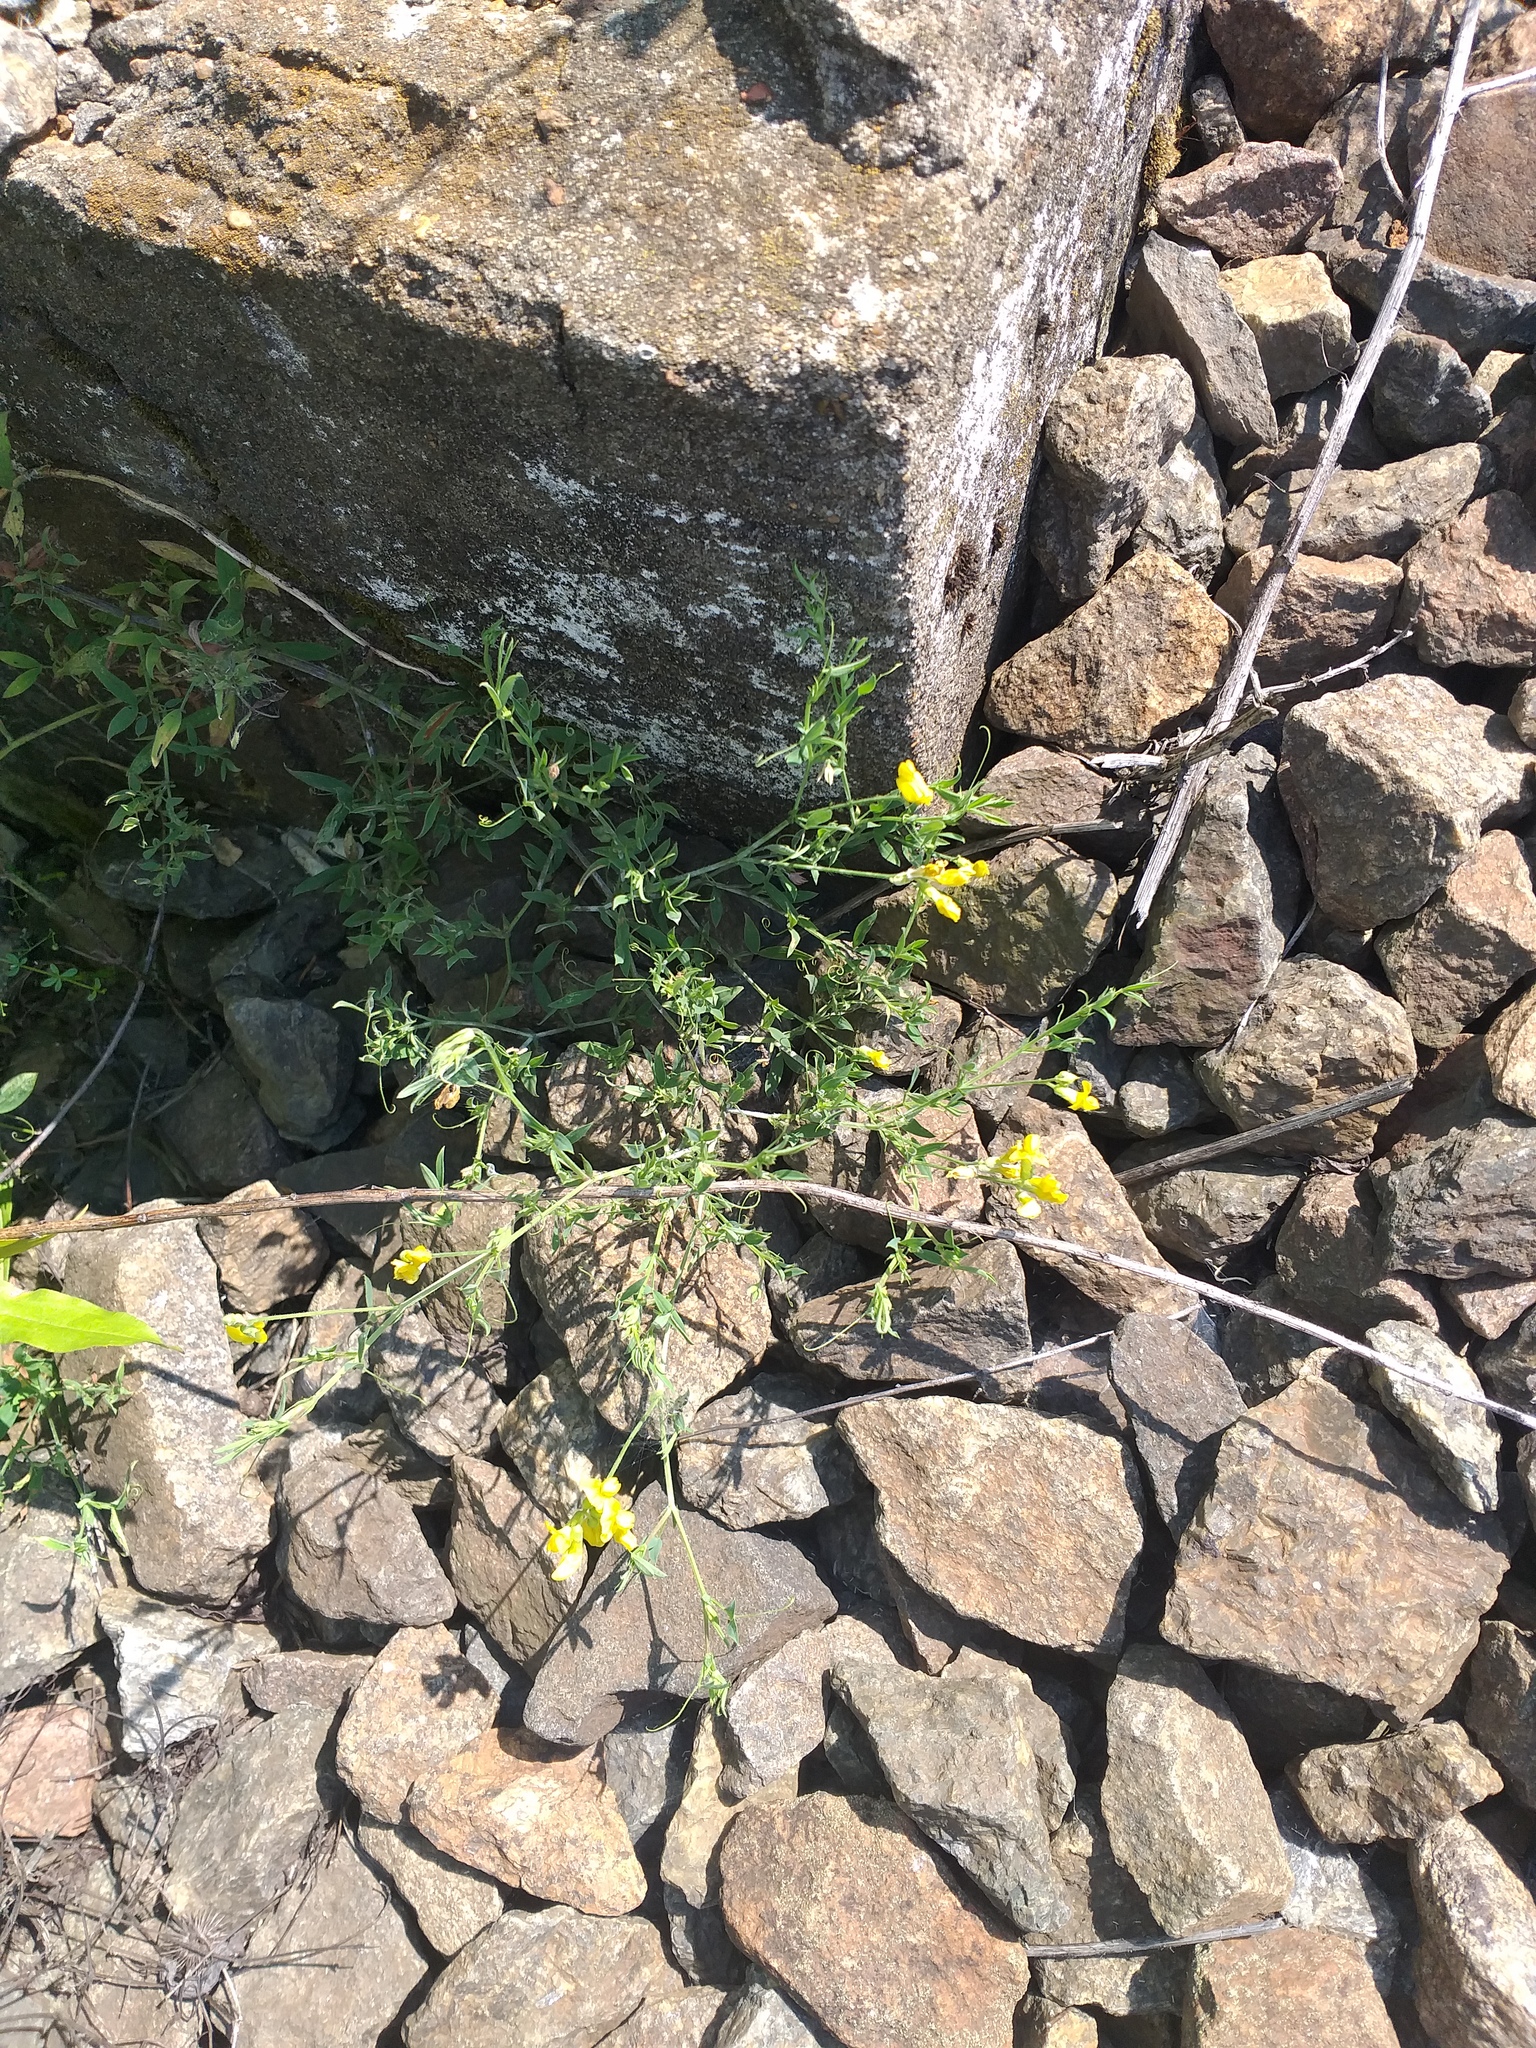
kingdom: Plantae
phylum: Tracheophyta
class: Magnoliopsida
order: Fabales
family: Fabaceae
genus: Lathyrus
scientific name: Lathyrus pratensis
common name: Meadow vetchling
